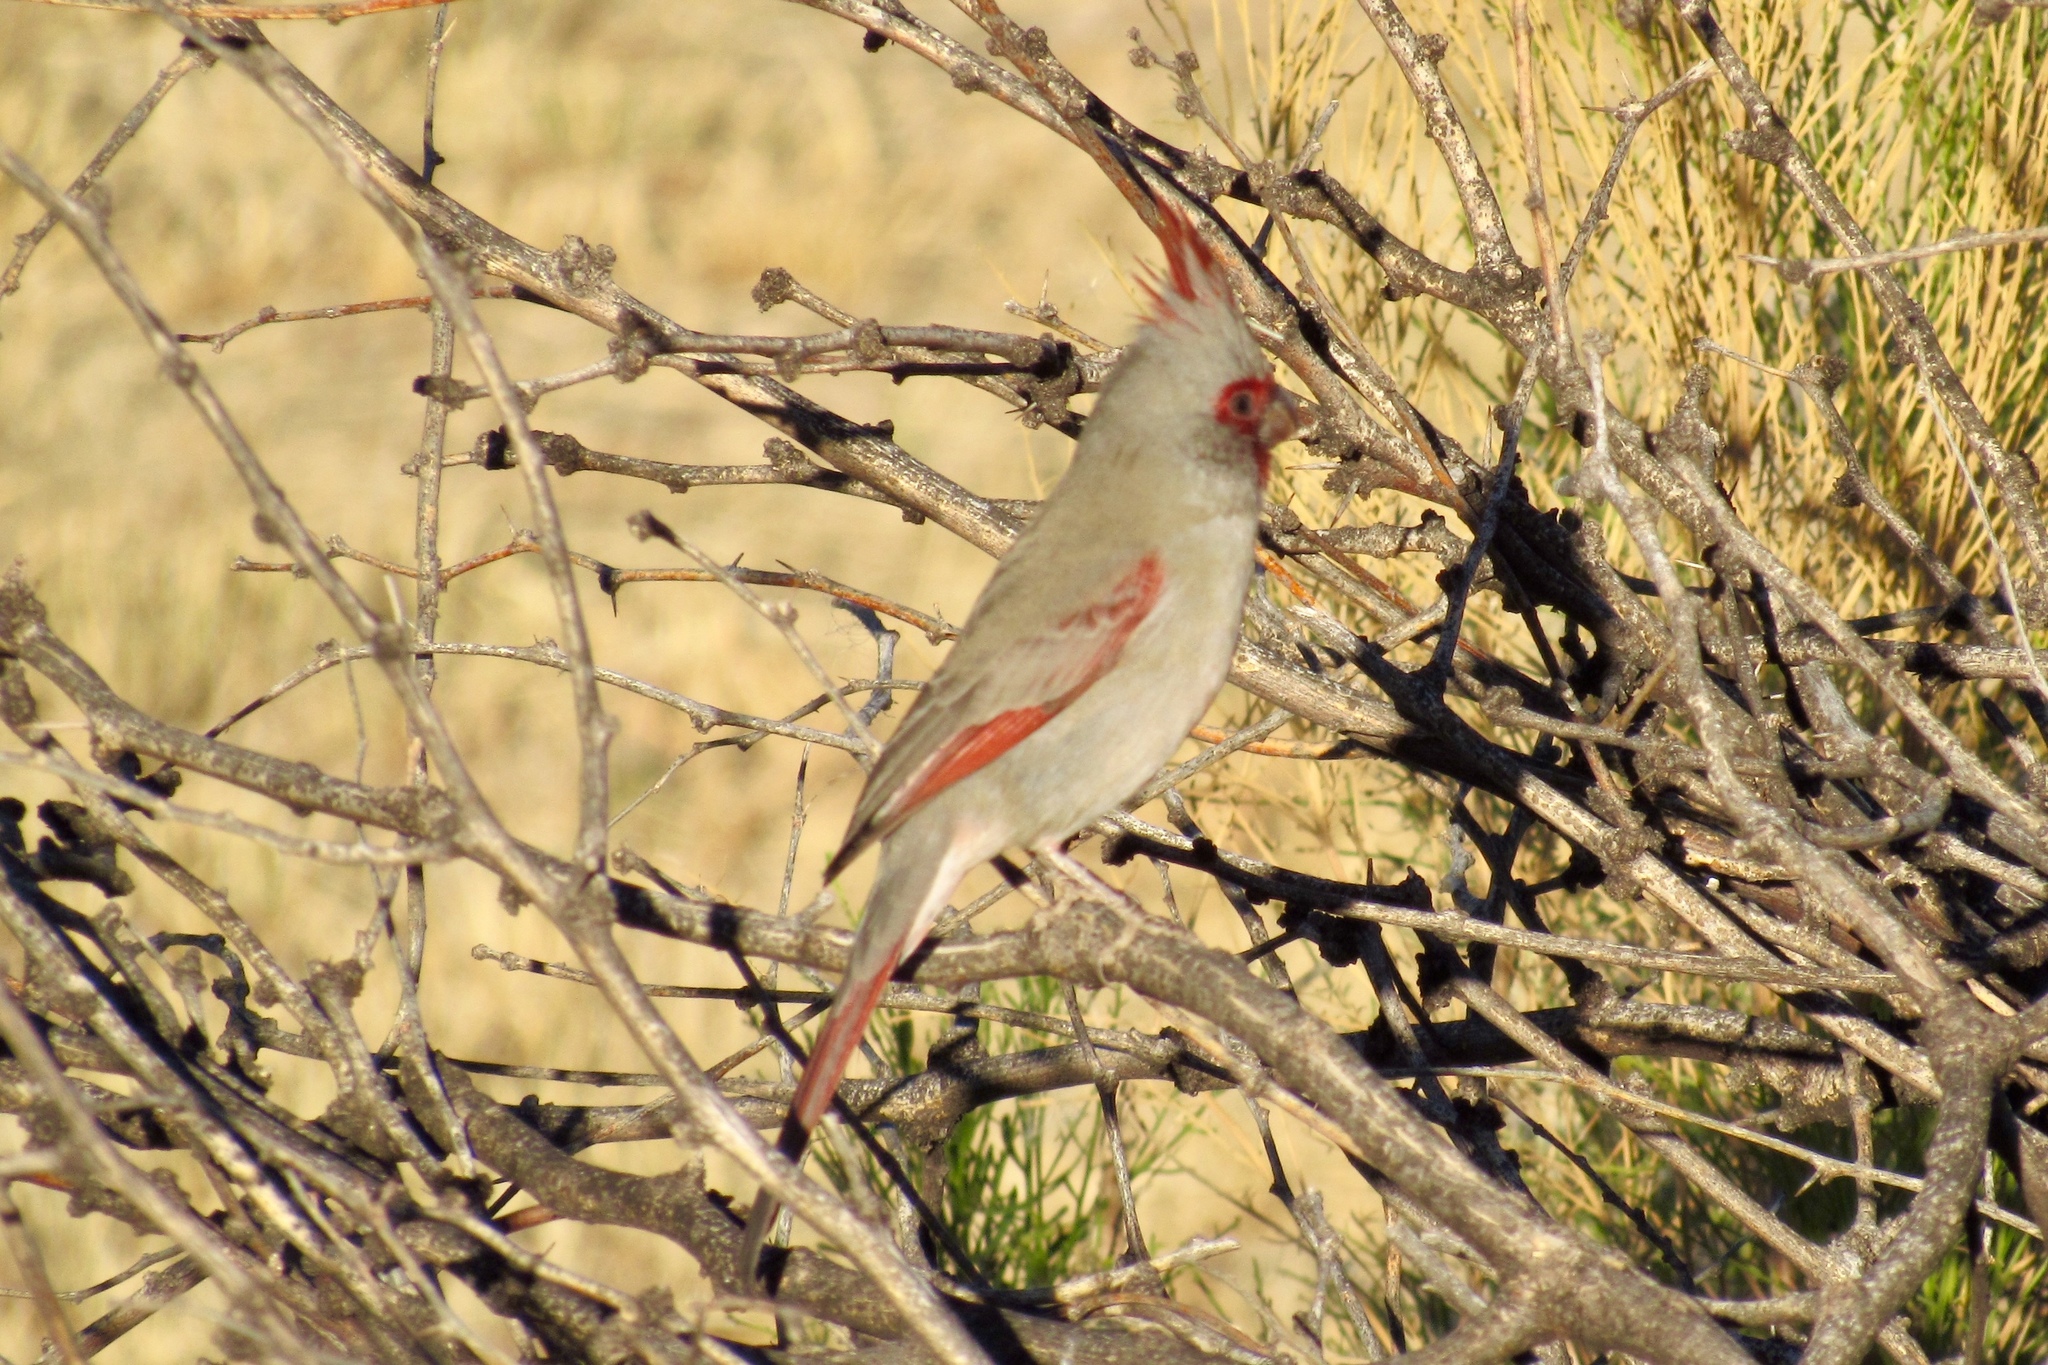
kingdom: Animalia
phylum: Chordata
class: Aves
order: Passeriformes
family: Cardinalidae
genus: Cardinalis
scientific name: Cardinalis sinuatus
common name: Pyrrhuloxia
